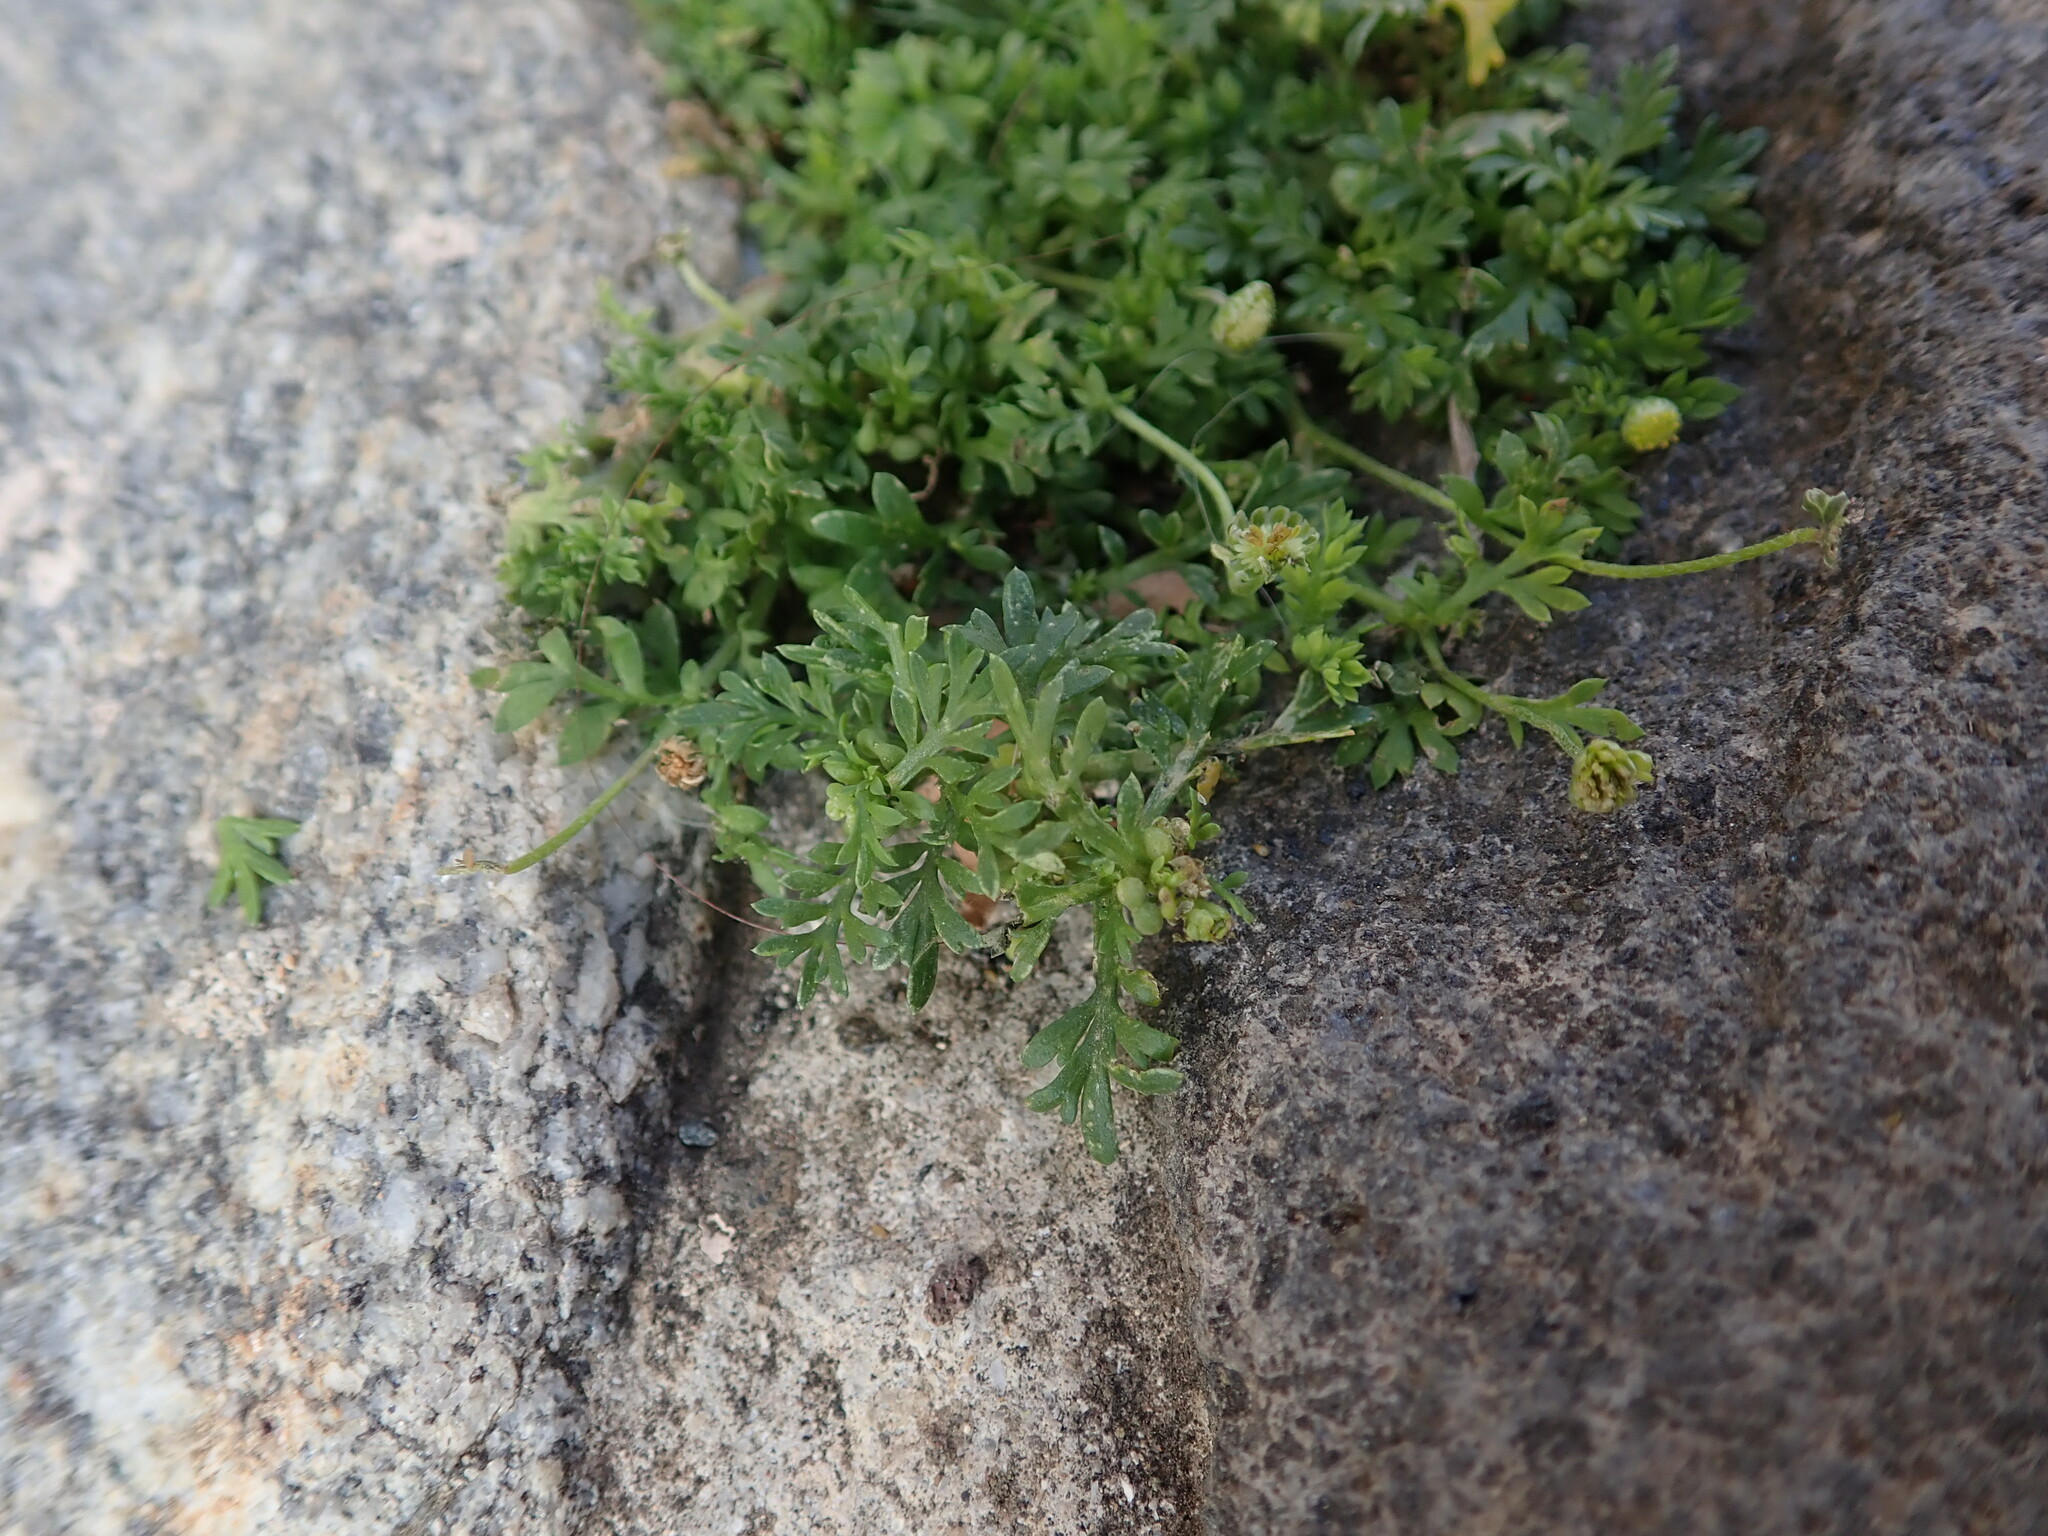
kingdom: Plantae
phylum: Tracheophyta
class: Magnoliopsida
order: Brassicales
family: Brassicaceae
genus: Lepidium
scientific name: Lepidium didymum
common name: Lesser swinecress
